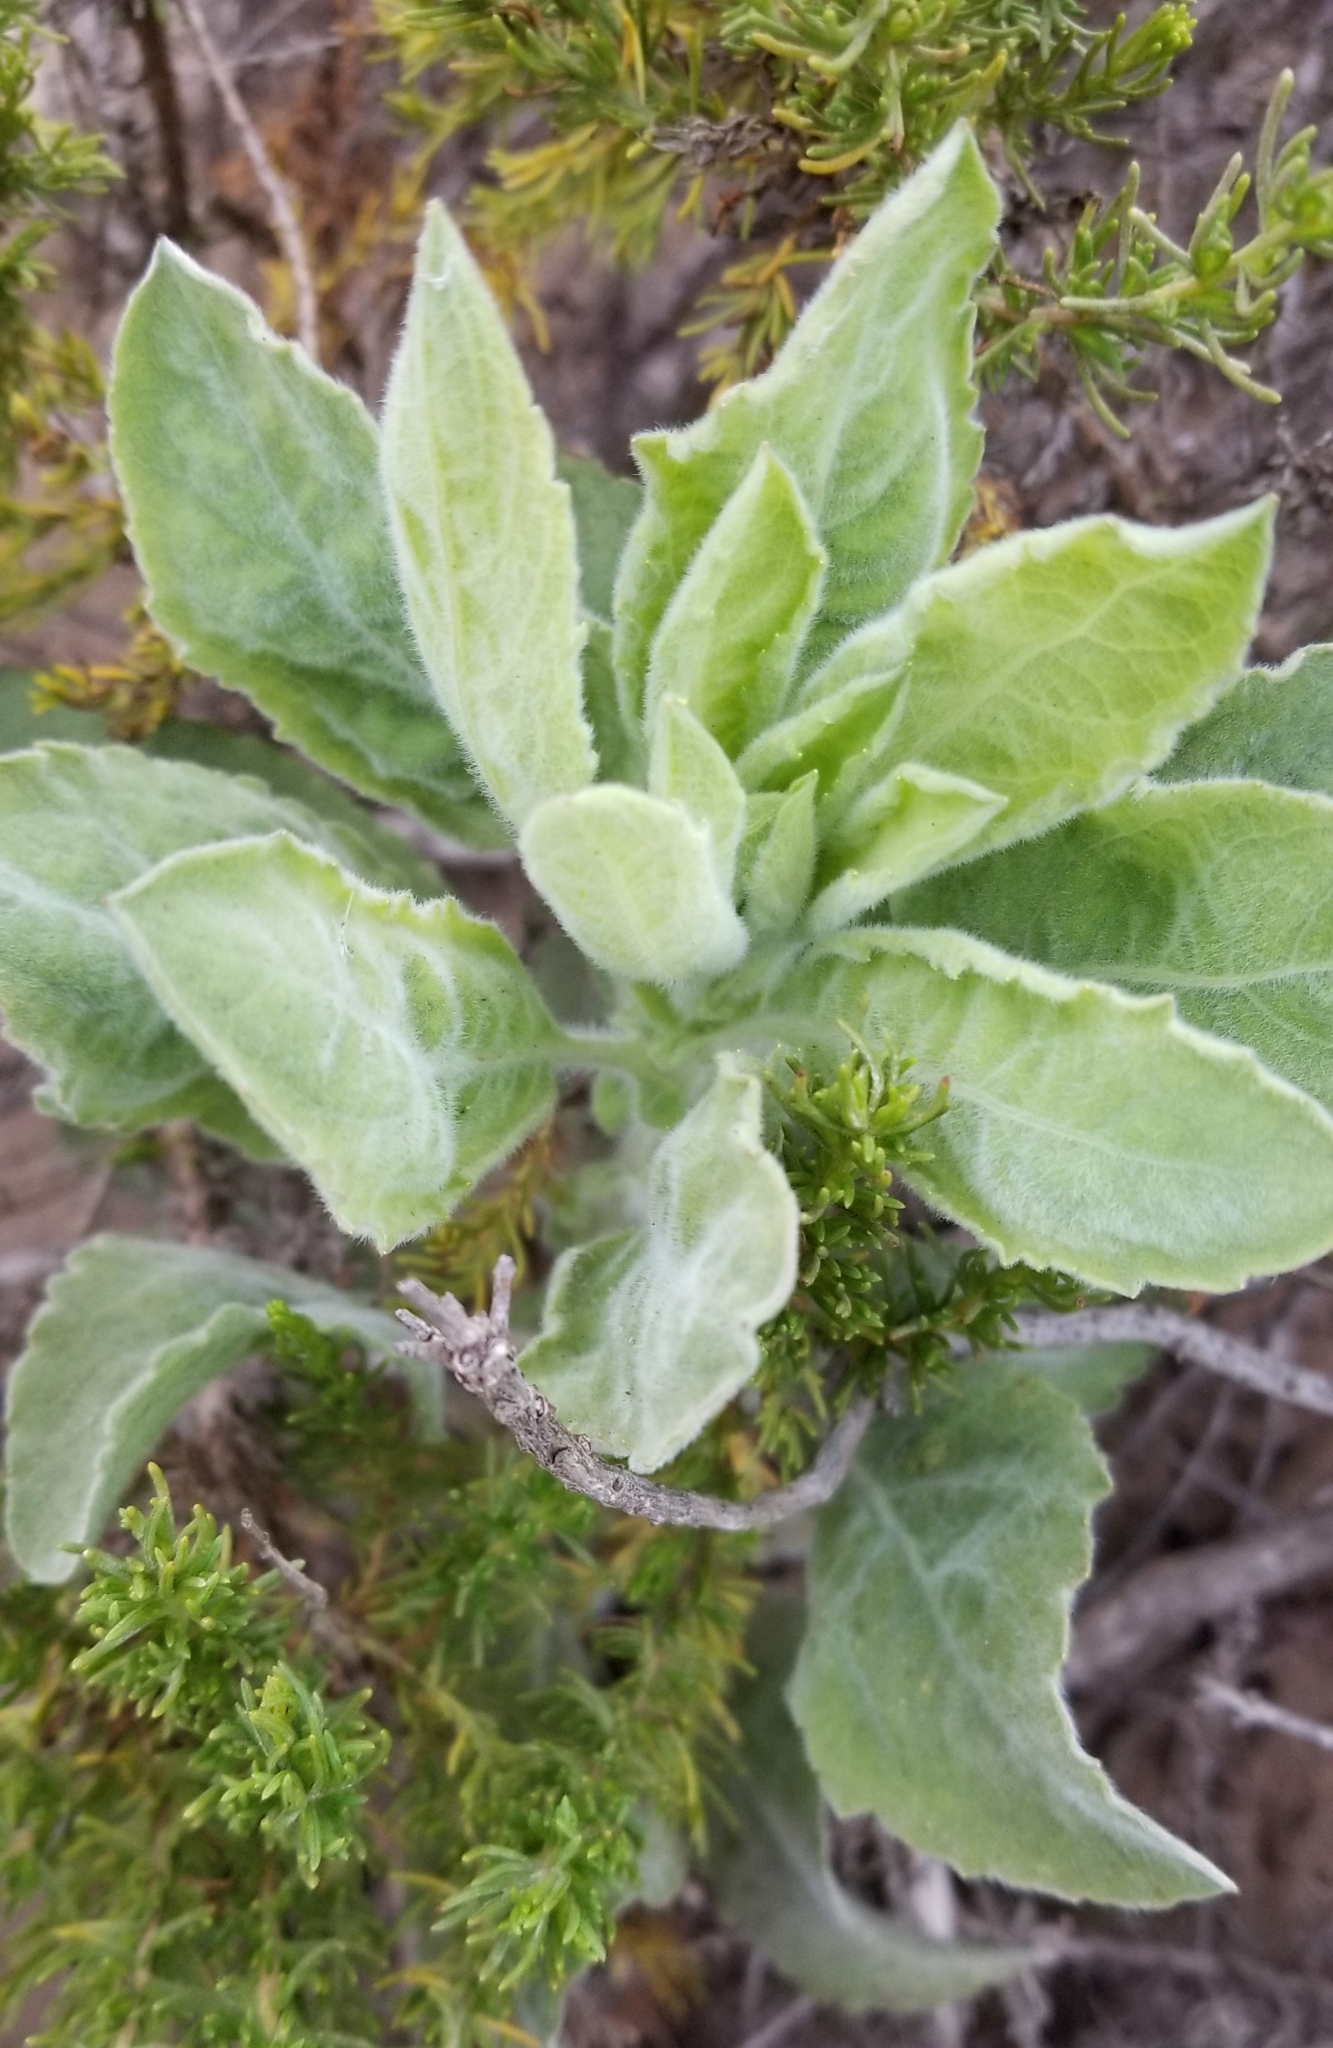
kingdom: Plantae
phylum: Tracheophyta
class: Magnoliopsida
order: Lamiales
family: Scrophulariaceae
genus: Verbascum
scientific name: Verbascum thapsus
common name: Common mullein
